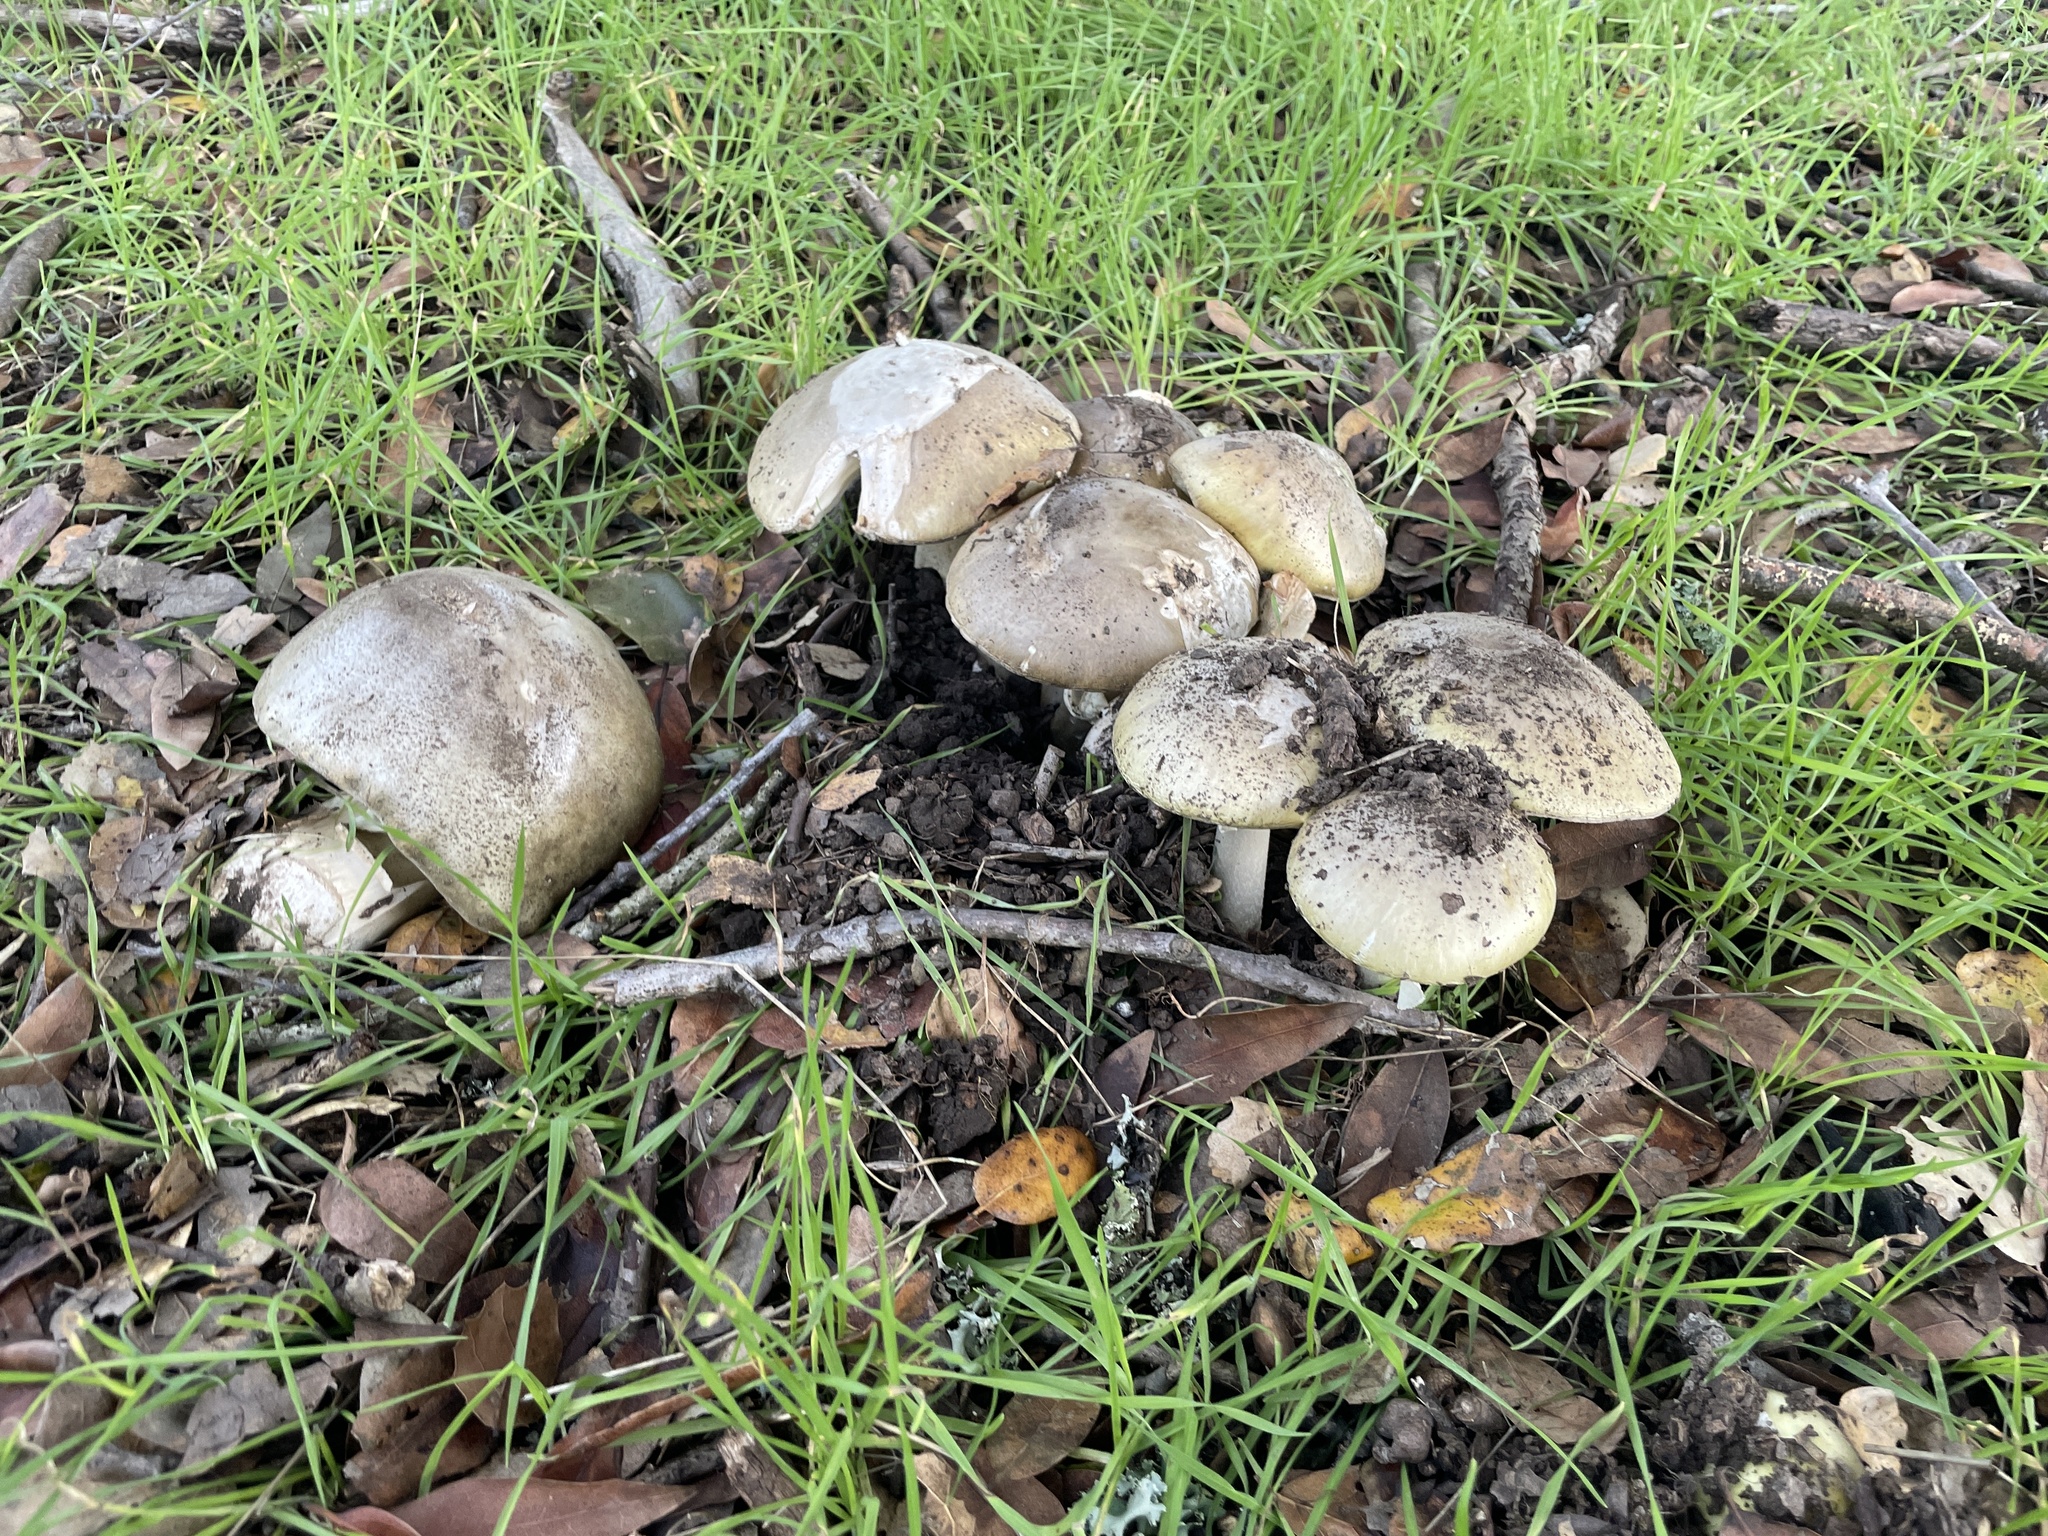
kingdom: Fungi
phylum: Basidiomycota
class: Agaricomycetes
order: Agaricales
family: Amanitaceae
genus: Amanita
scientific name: Amanita phalloides
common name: Death cap
